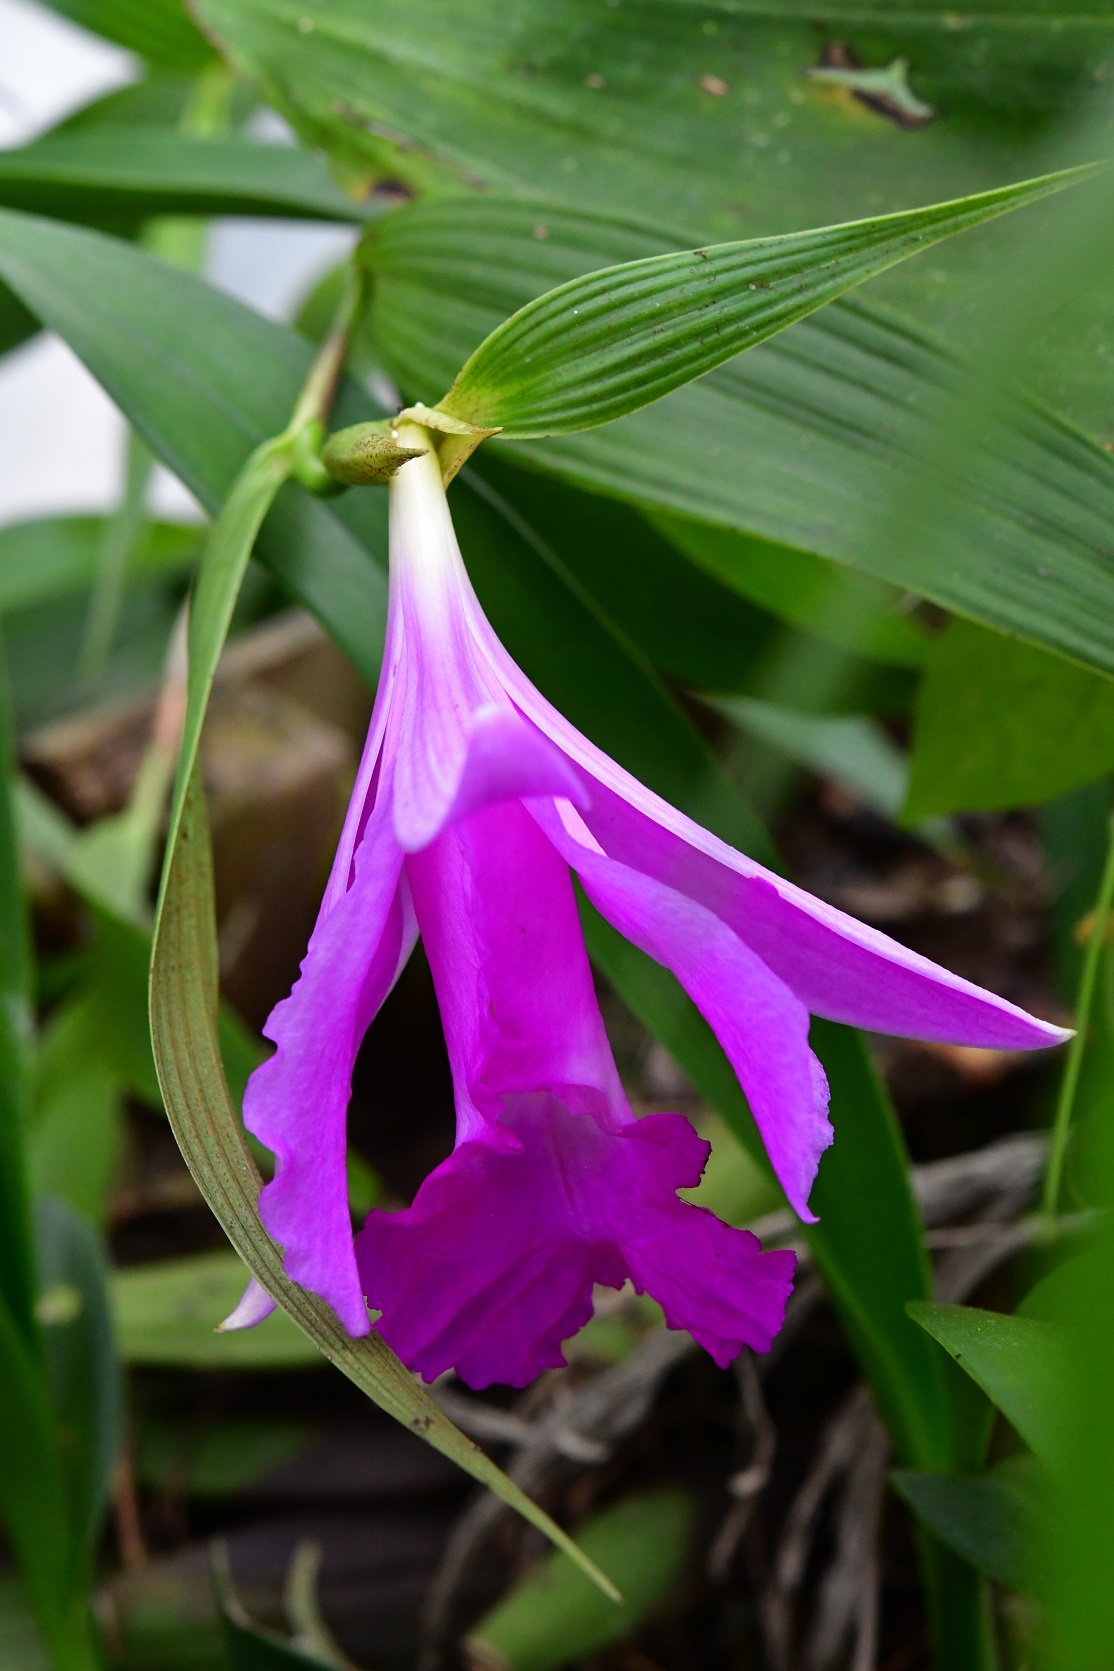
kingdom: Plantae
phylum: Tracheophyta
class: Liliopsida
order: Asparagales
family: Orchidaceae
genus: Sobralia
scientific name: Sobralia macrantha
